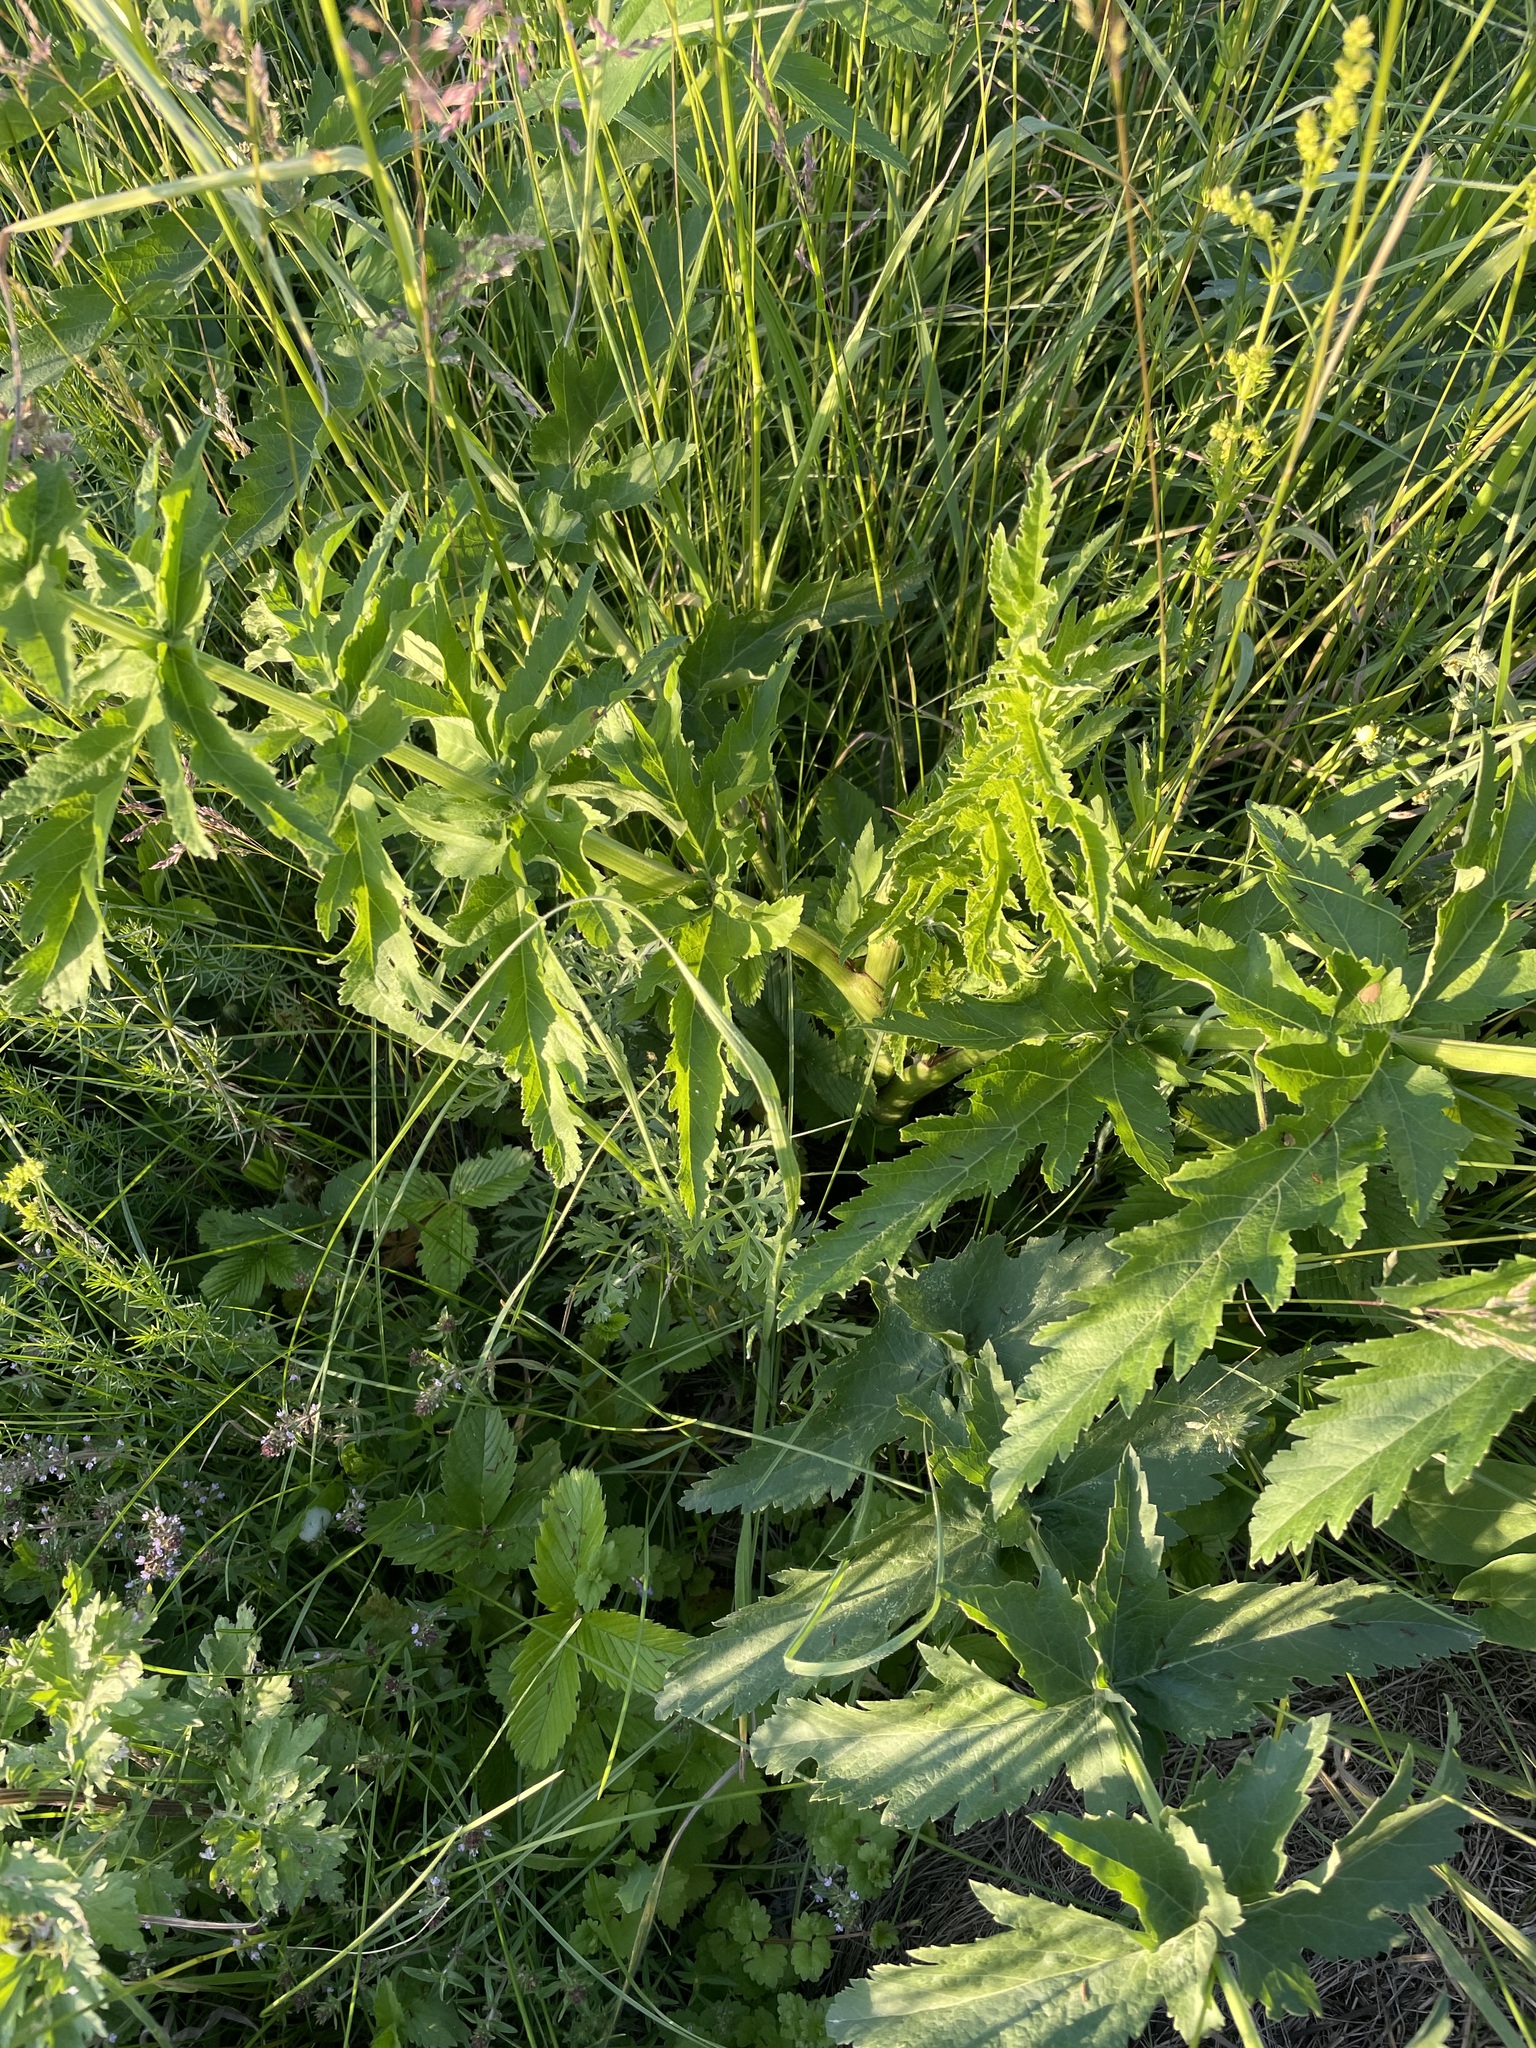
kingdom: Plantae
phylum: Tracheophyta
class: Magnoliopsida
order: Apiales
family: Apiaceae
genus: Pastinaca
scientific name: Pastinaca sativa
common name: Wild parsnip
